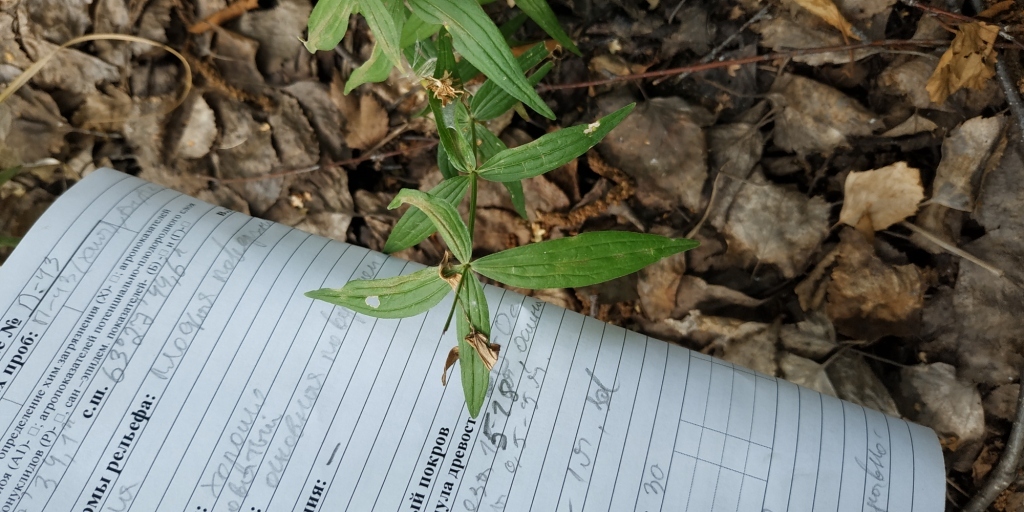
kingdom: Plantae
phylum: Tracheophyta
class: Magnoliopsida
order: Gentianales
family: Rubiaceae
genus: Galium
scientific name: Galium boreale
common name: Northern bedstraw
